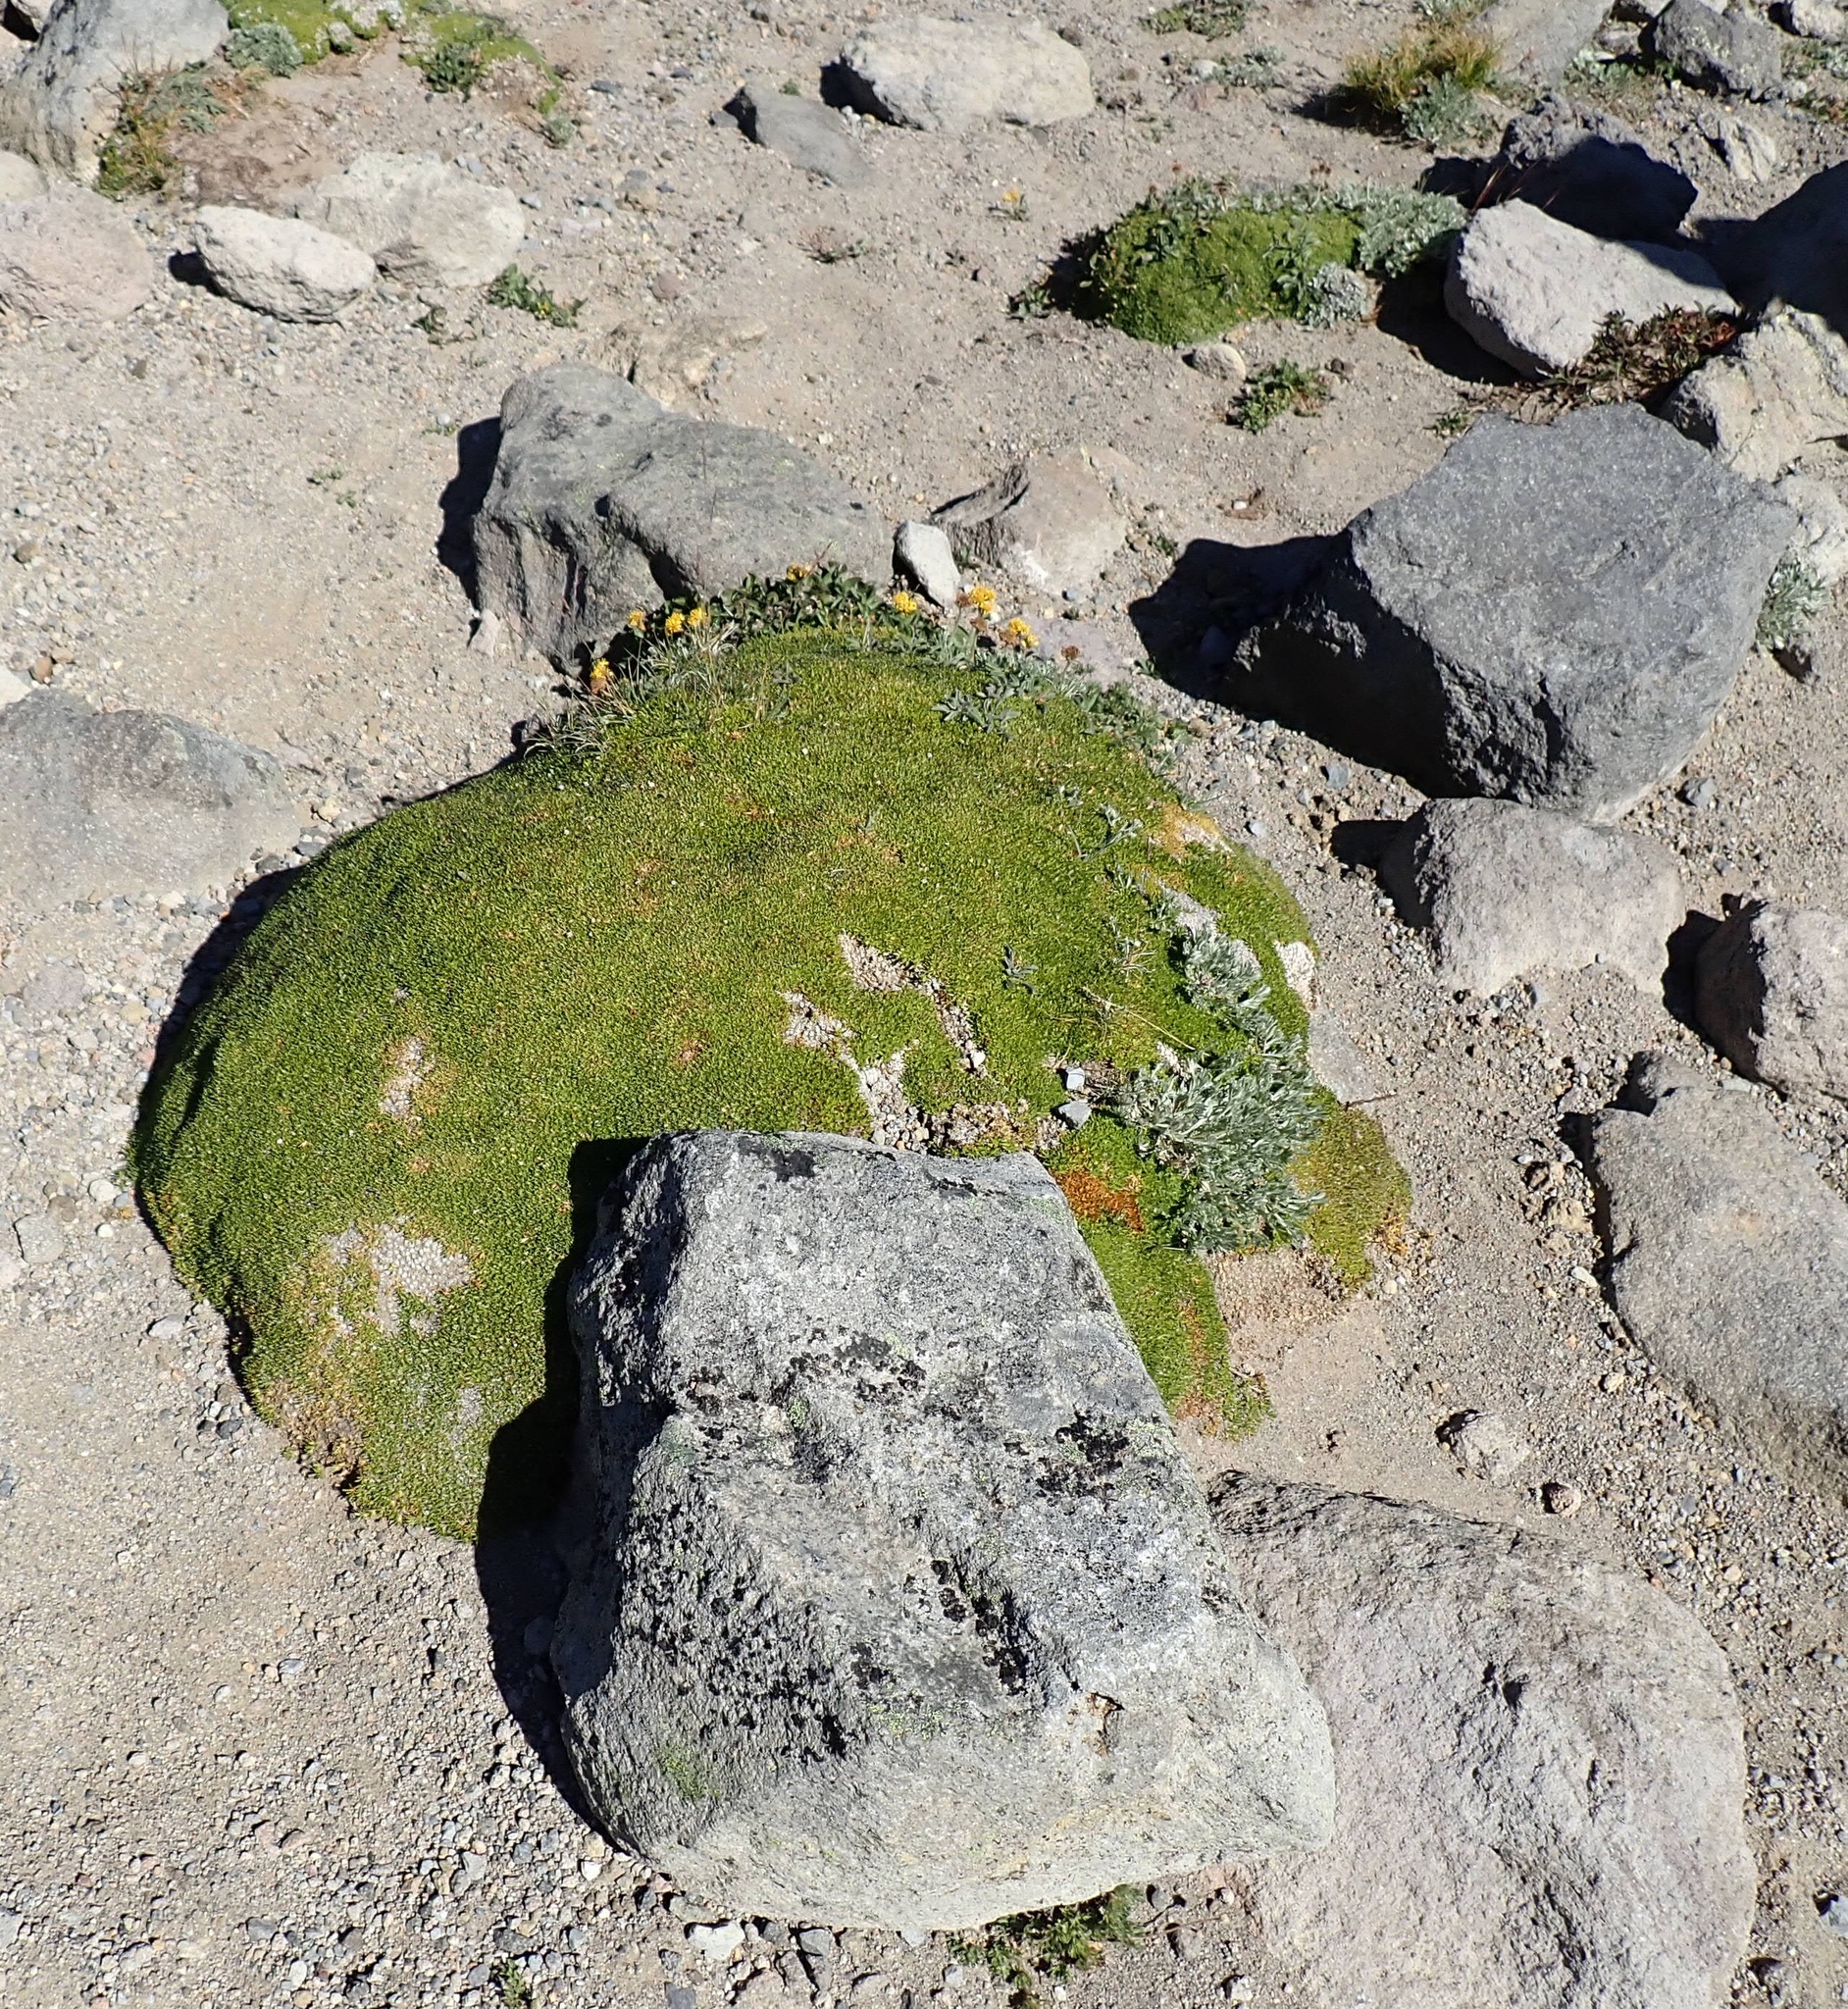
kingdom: Plantae
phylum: Tracheophyta
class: Magnoliopsida
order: Caryophyllales
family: Caryophyllaceae
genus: Silene
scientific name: Silene acaulis
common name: Moss campion
